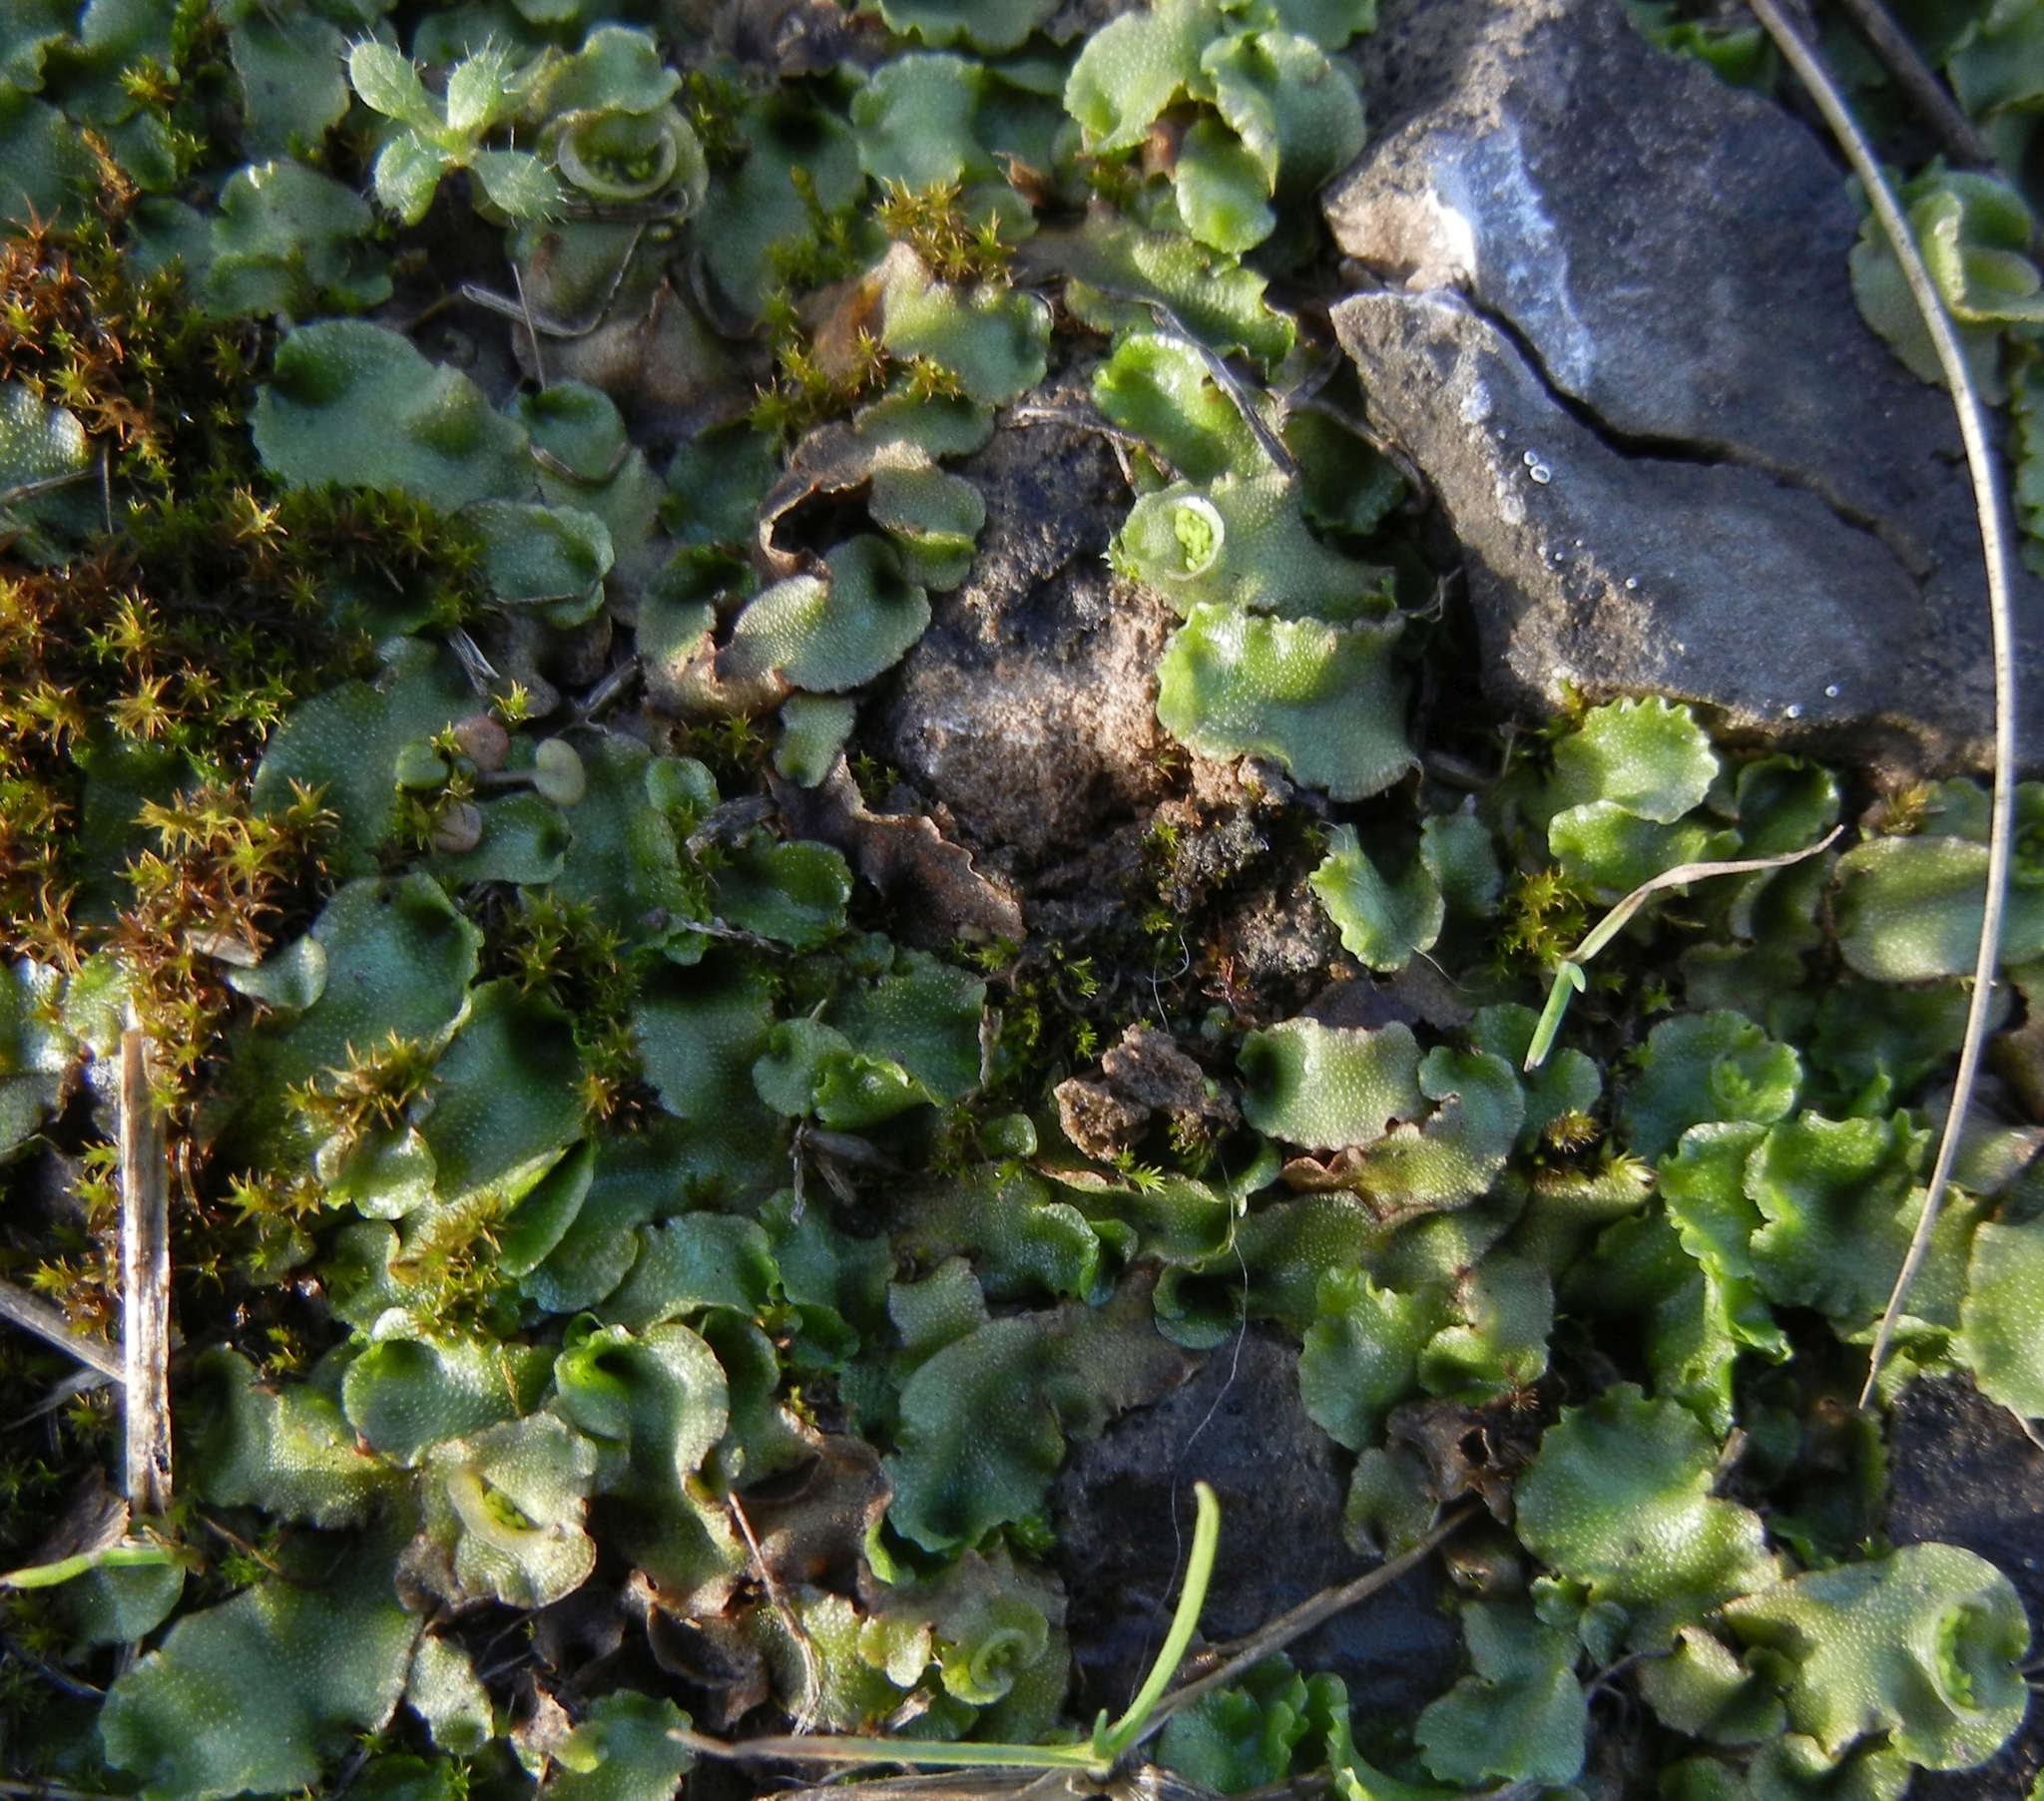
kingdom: Plantae
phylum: Marchantiophyta
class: Marchantiopsida
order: Lunulariales
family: Lunulariaceae
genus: Lunularia
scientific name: Lunularia cruciata
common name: Crescent-cup liverwort
